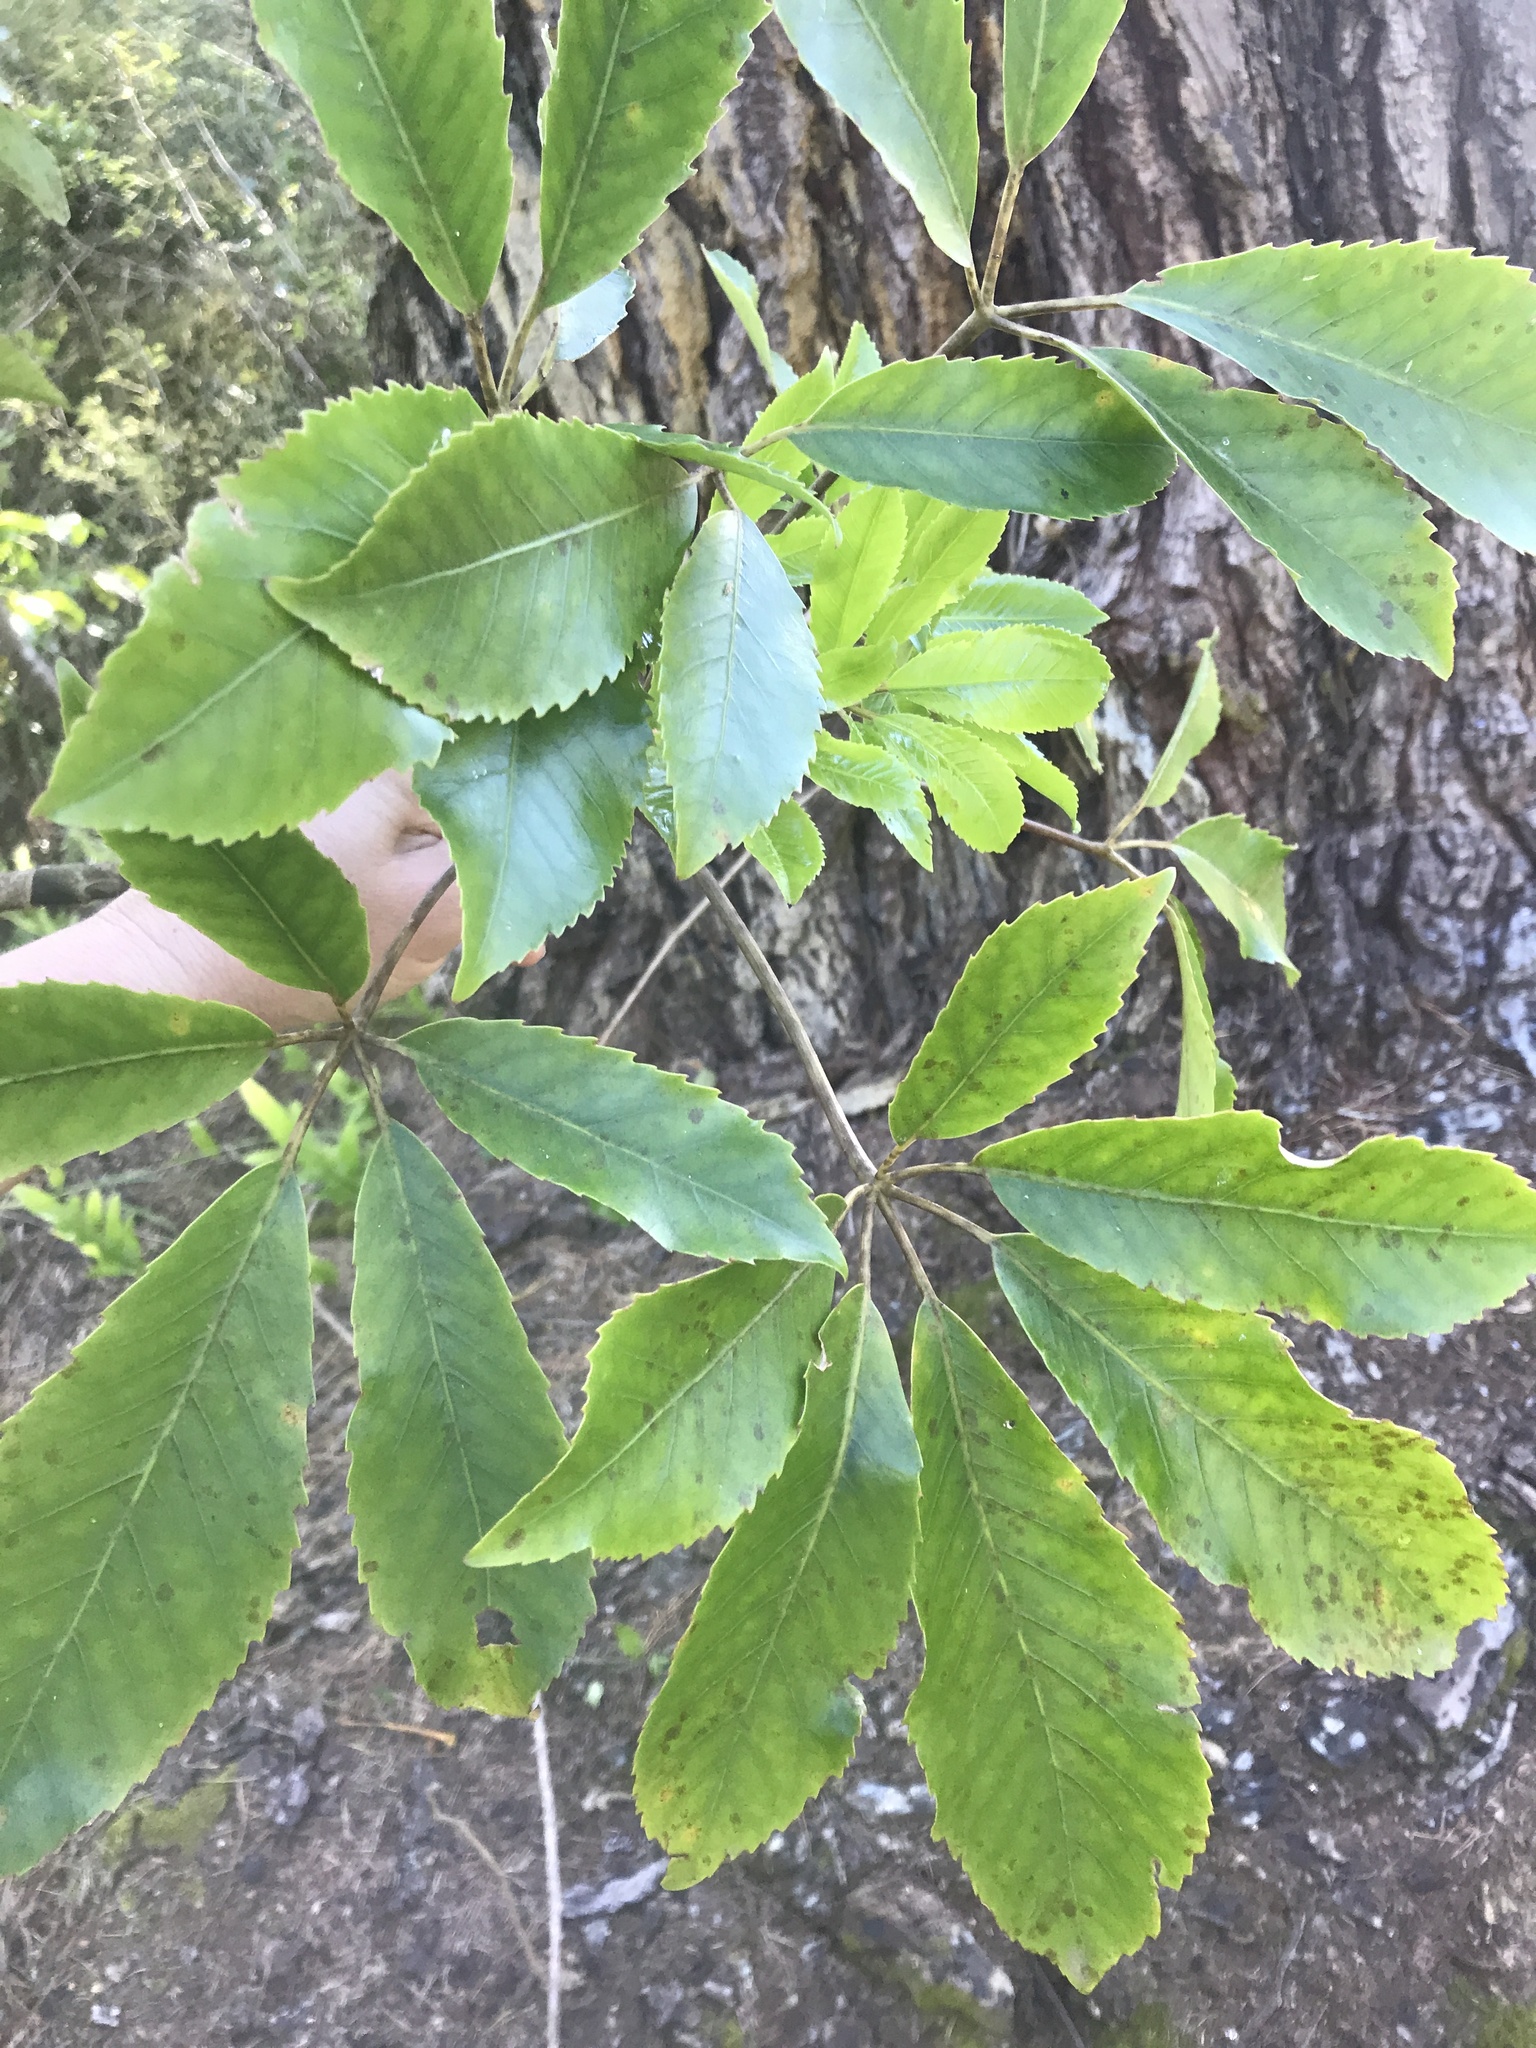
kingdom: Plantae
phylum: Tracheophyta
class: Magnoliopsida
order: Apiales
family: Araliaceae
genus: Neopanax
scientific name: Neopanax arboreus
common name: Five-fingers
